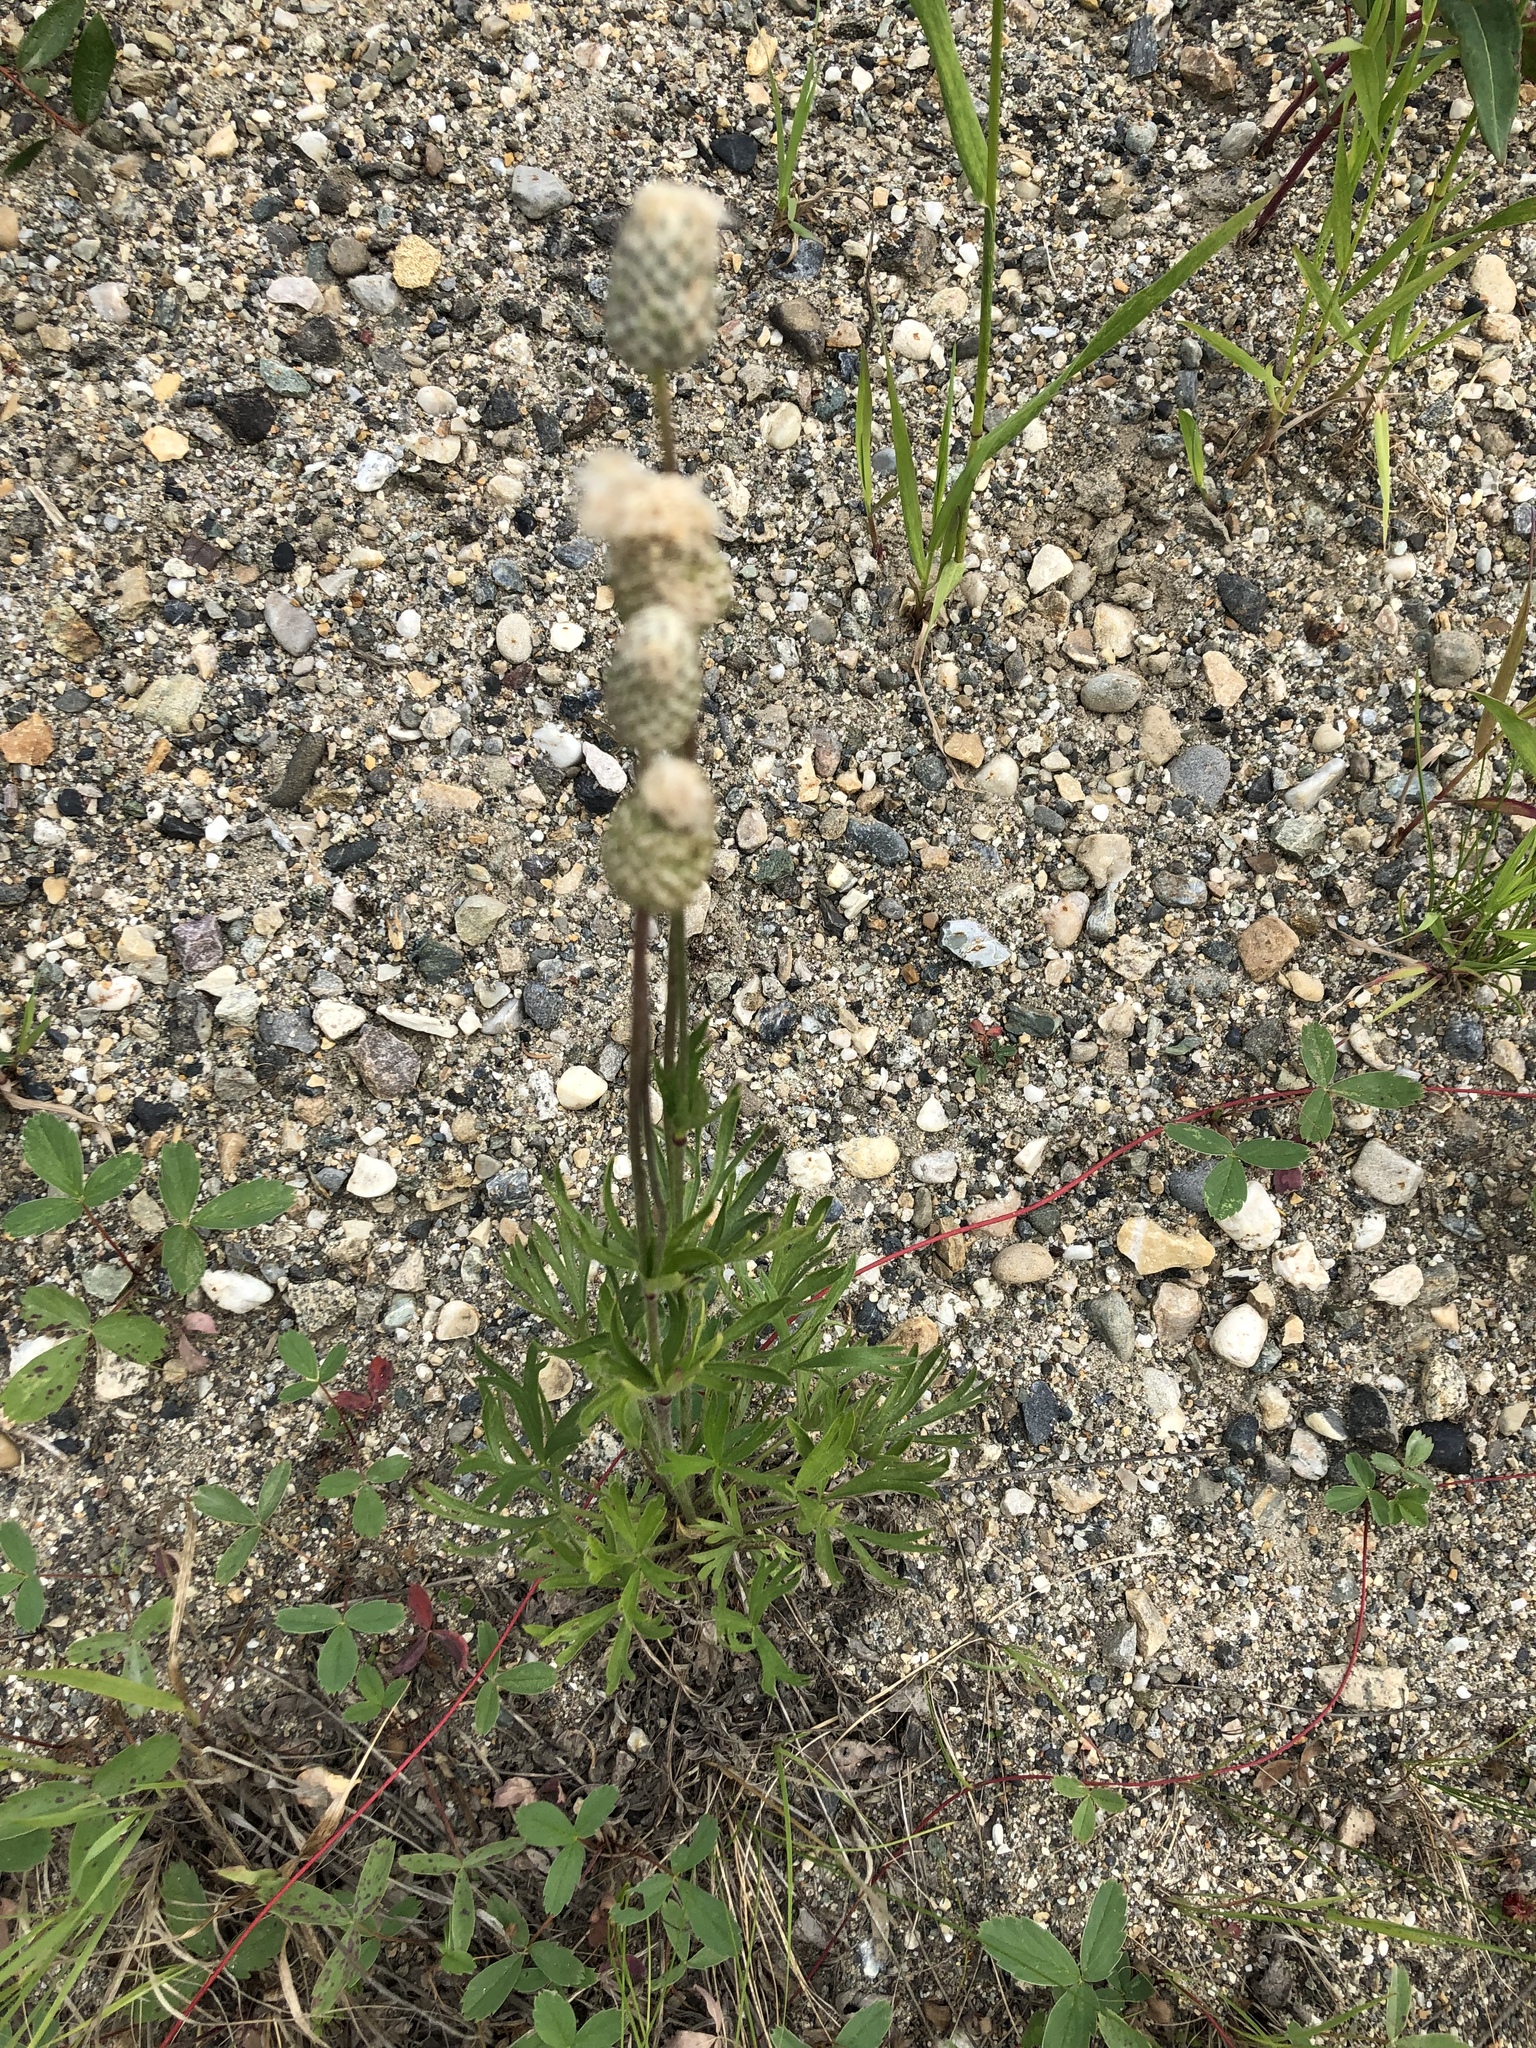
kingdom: Plantae
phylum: Tracheophyta
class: Magnoliopsida
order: Ranunculales
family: Ranunculaceae
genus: Anemone
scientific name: Anemone multifida
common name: Bird's-foot anemone
